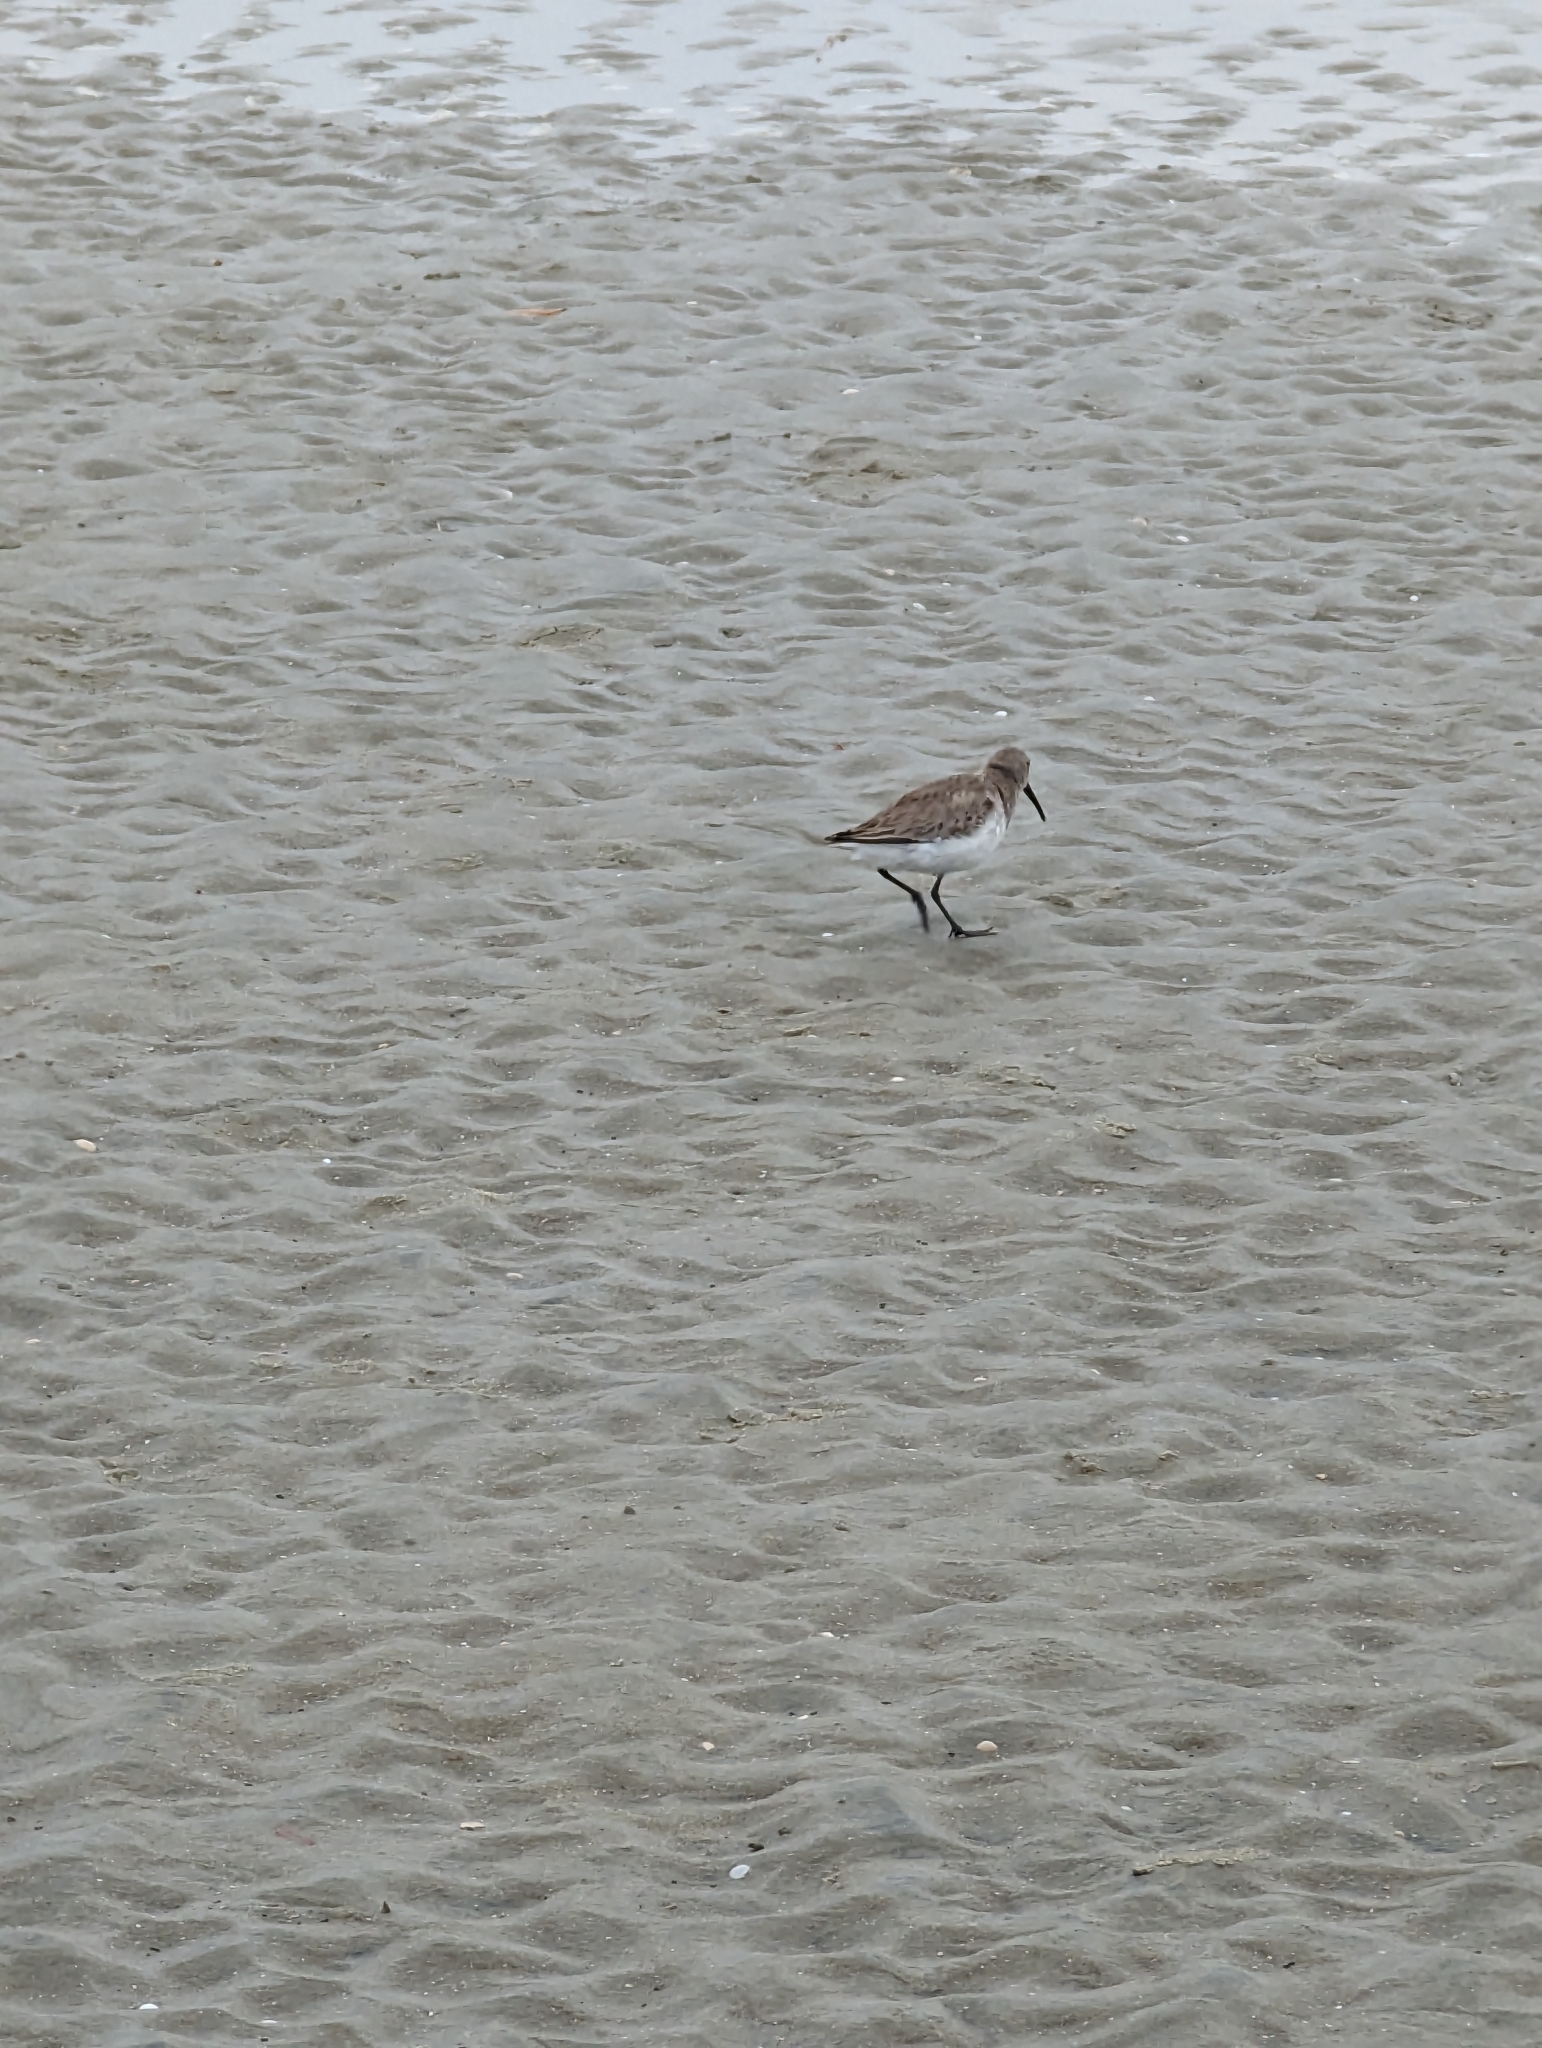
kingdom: Animalia
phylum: Chordata
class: Aves
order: Charadriiformes
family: Scolopacidae
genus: Calidris
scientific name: Calidris alpina
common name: Dunlin
